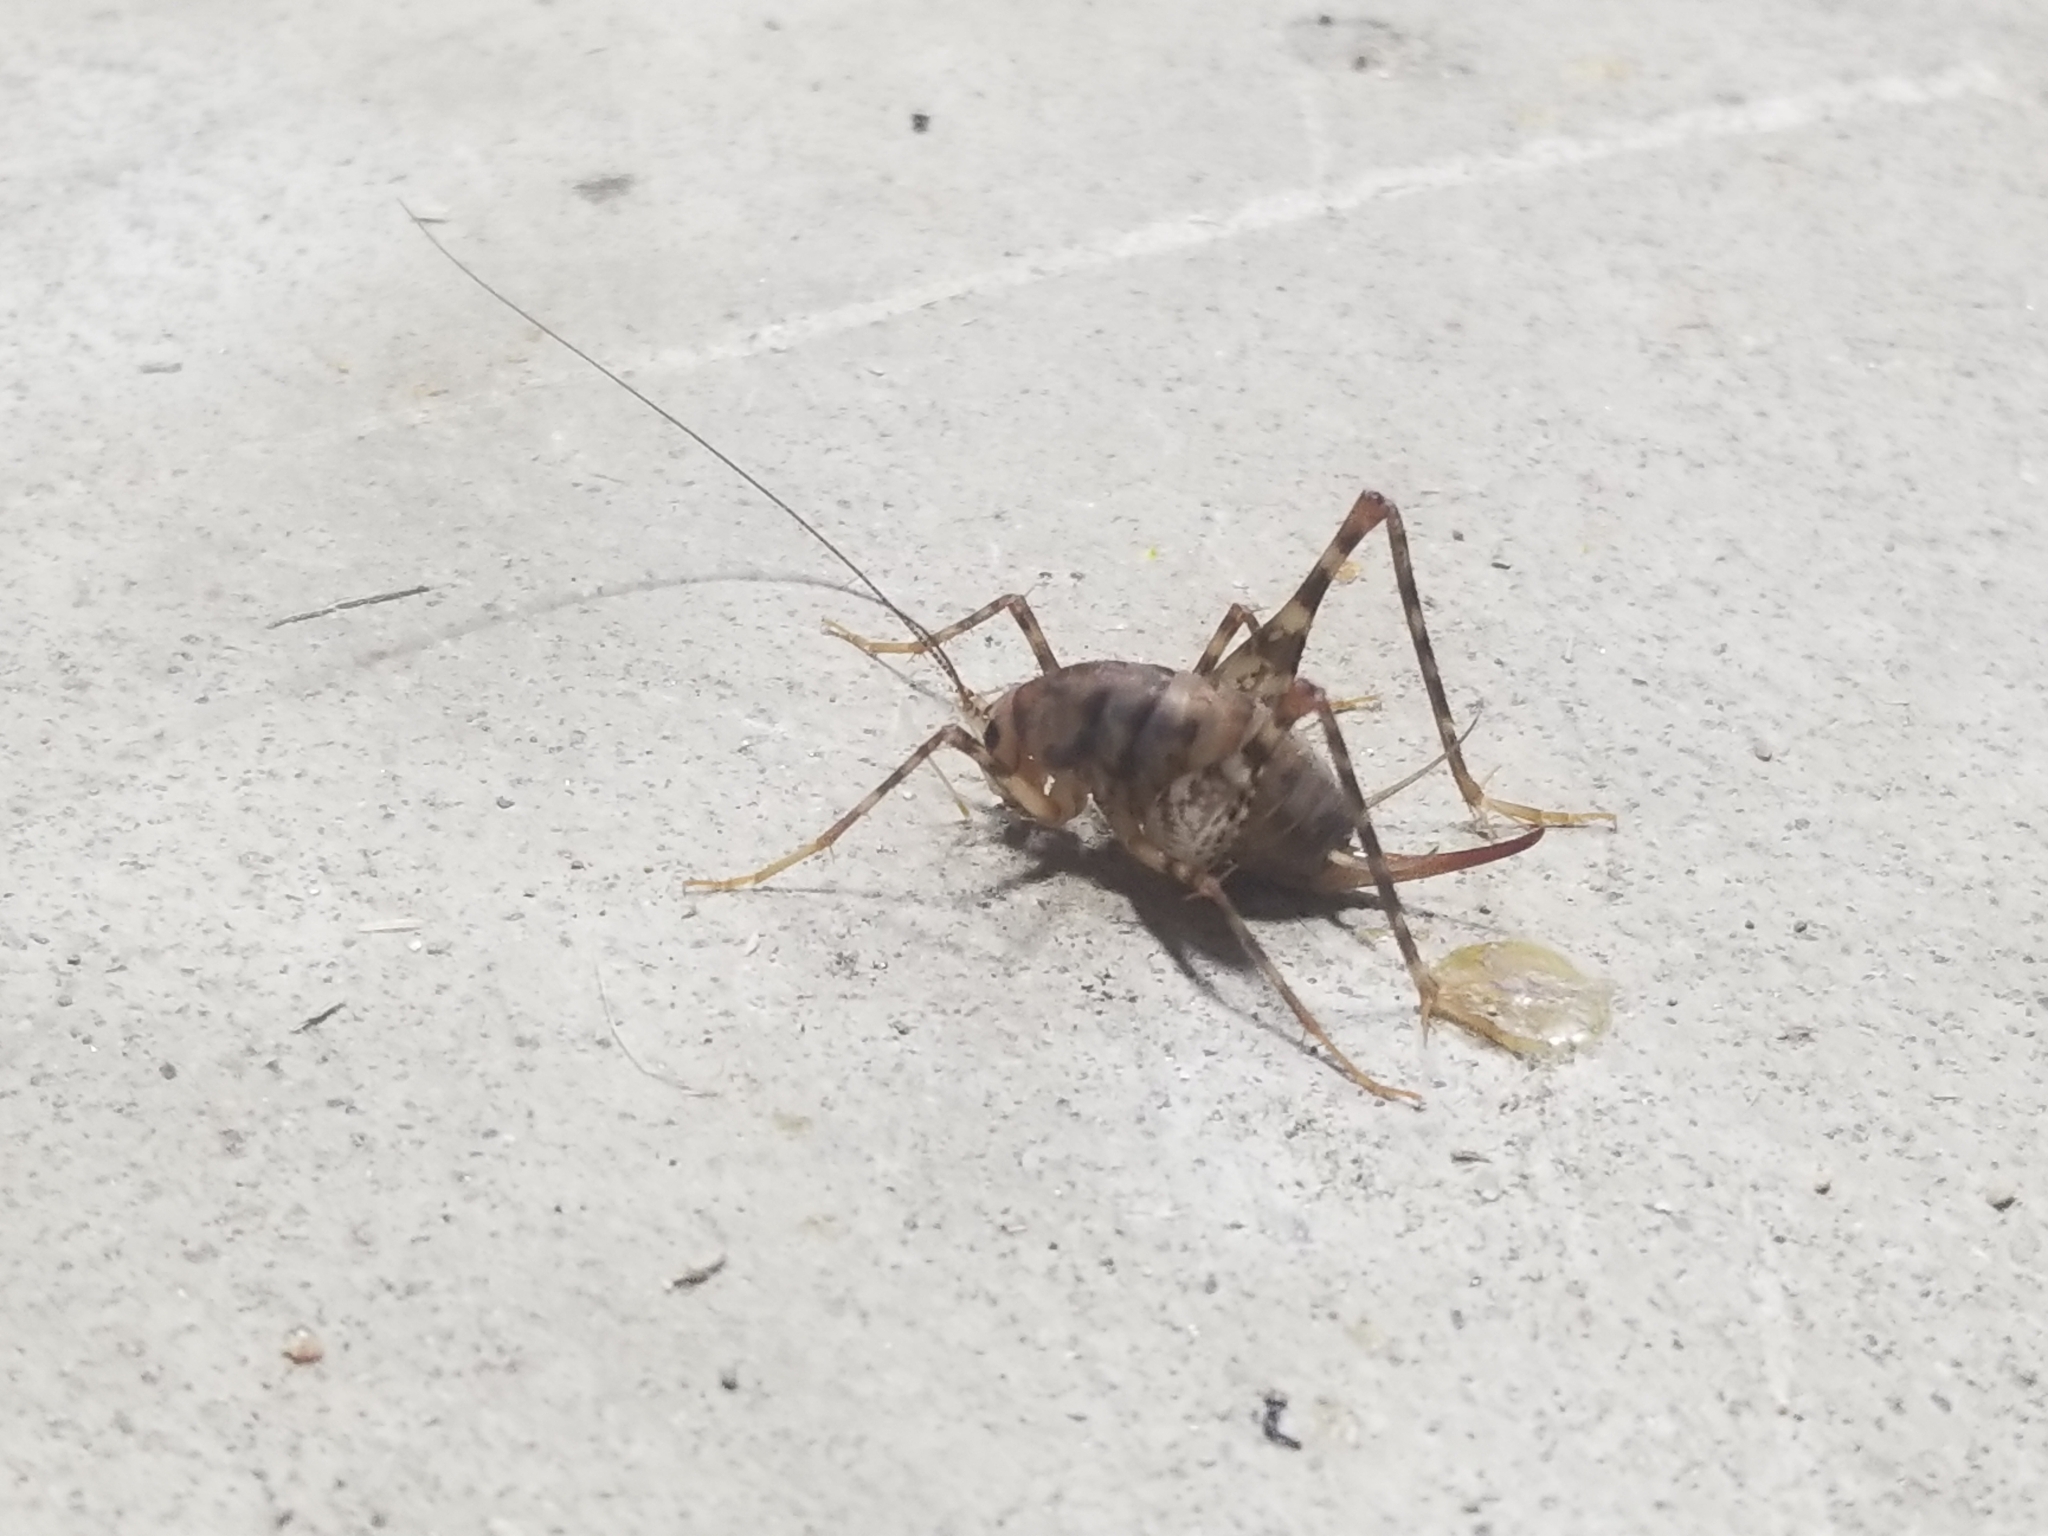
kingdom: Animalia
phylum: Arthropoda
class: Insecta
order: Orthoptera
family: Rhaphidophoridae
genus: Tachycines
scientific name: Tachycines asynamorus
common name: Greenhouse camel cricket
